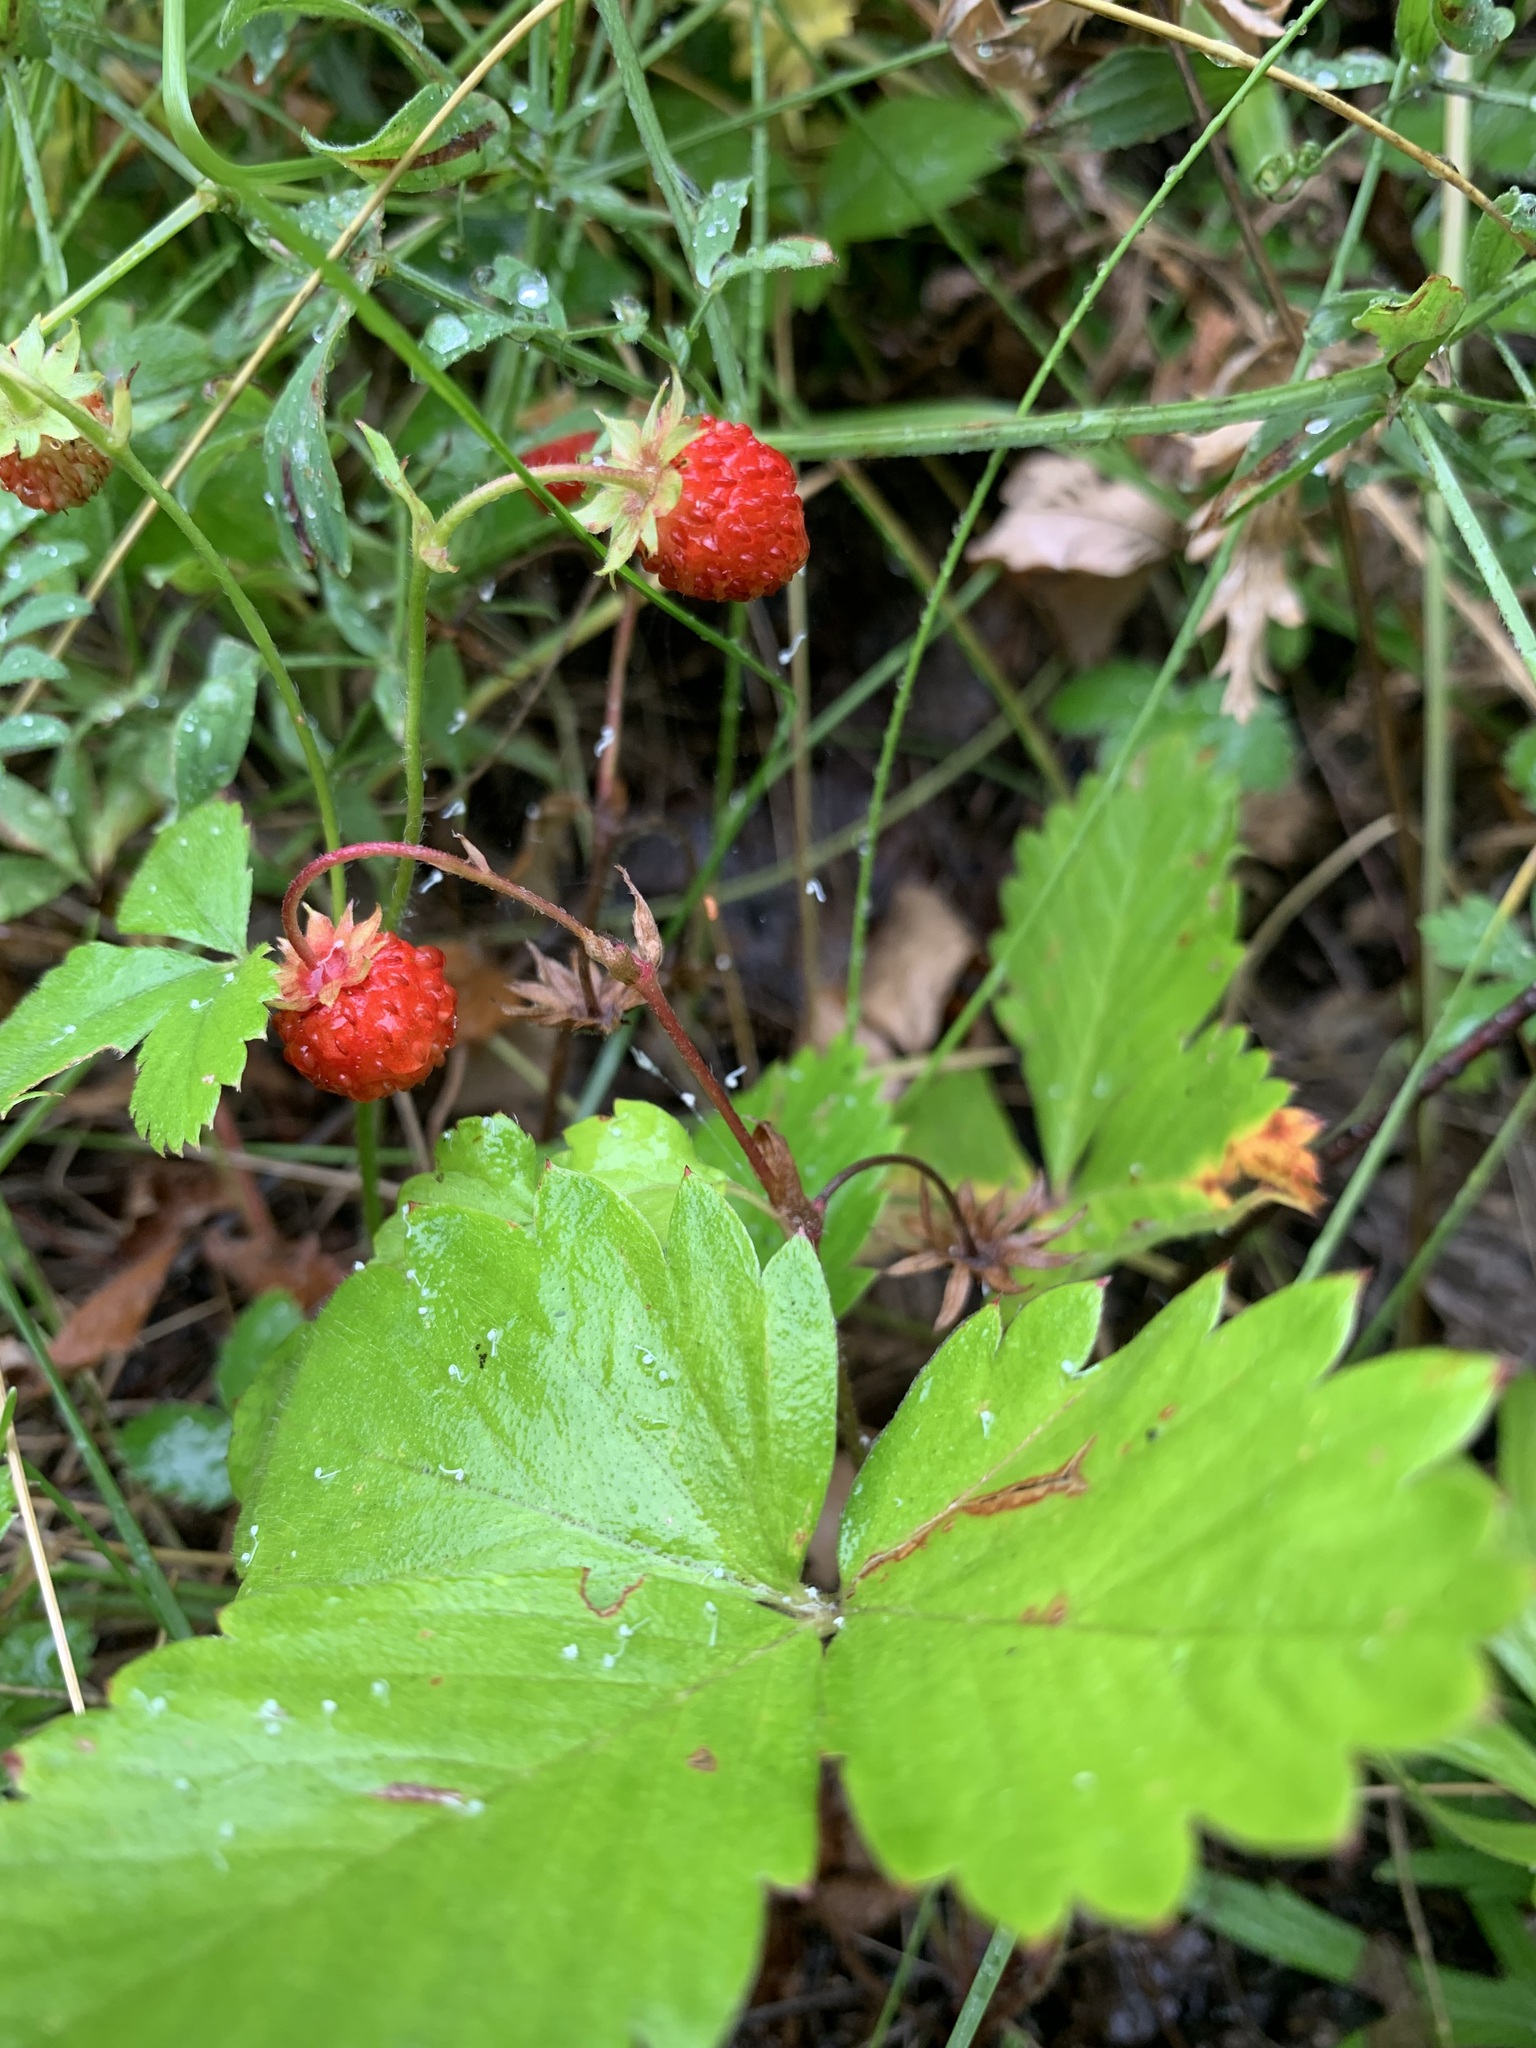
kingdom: Plantae
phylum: Tracheophyta
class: Magnoliopsida
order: Rosales
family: Rosaceae
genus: Fragaria
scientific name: Fragaria vesca
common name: Wild strawberry
